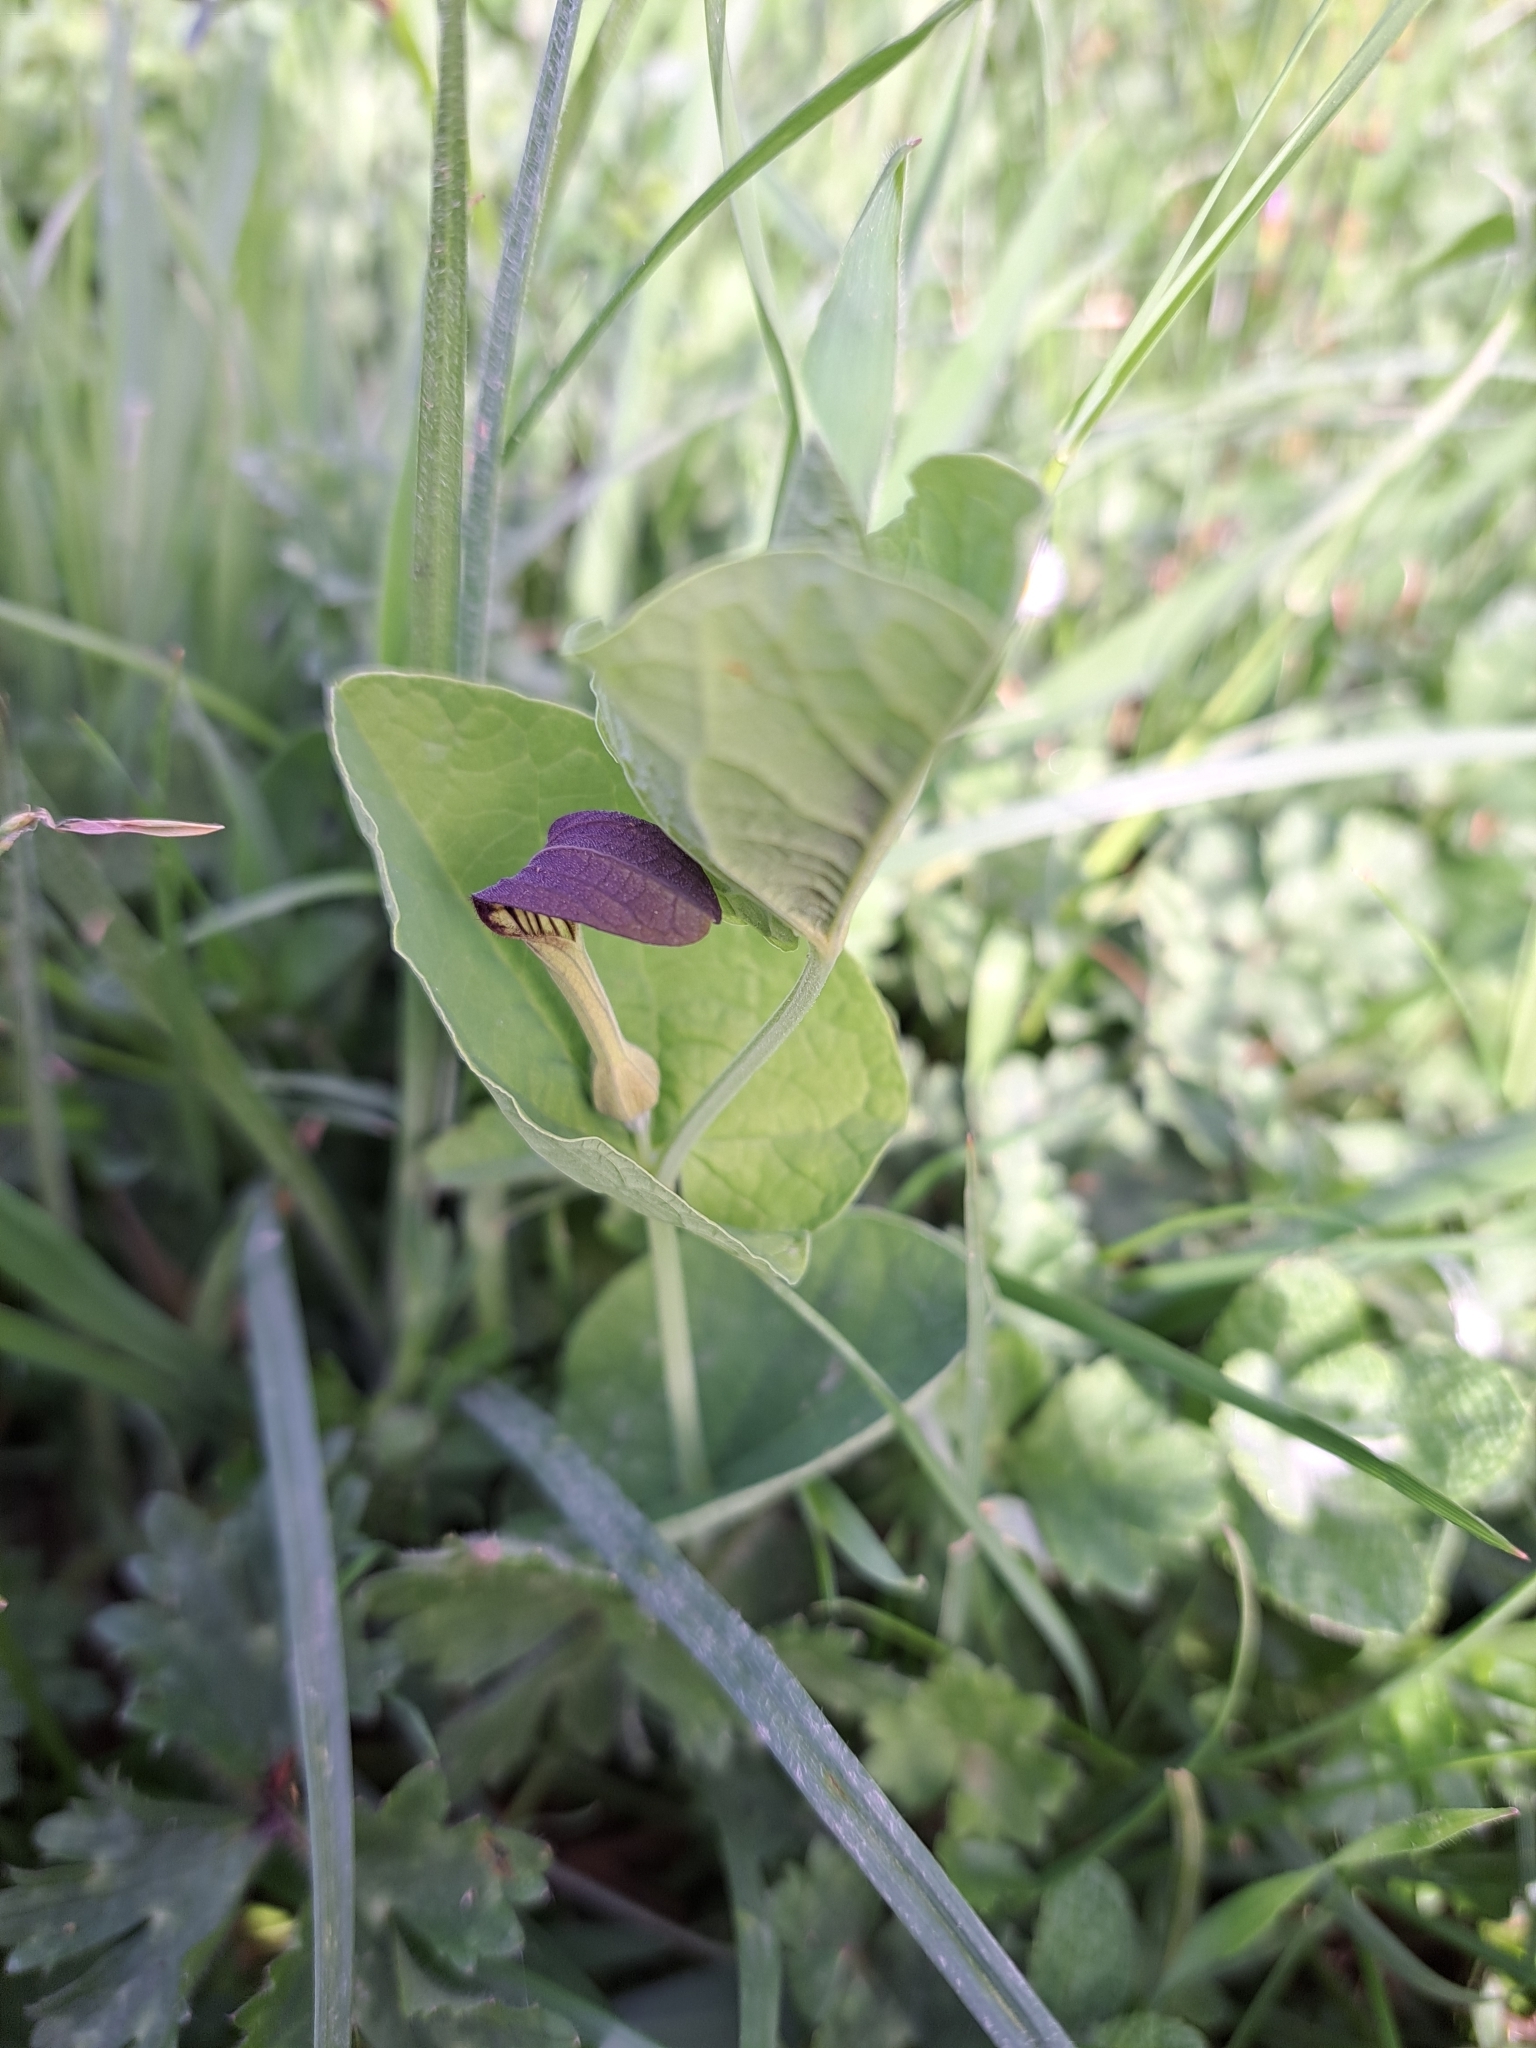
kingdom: Plantae
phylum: Tracheophyta
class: Magnoliopsida
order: Piperales
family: Aristolochiaceae
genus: Aristolochia
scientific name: Aristolochia rotunda
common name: Smearwort
